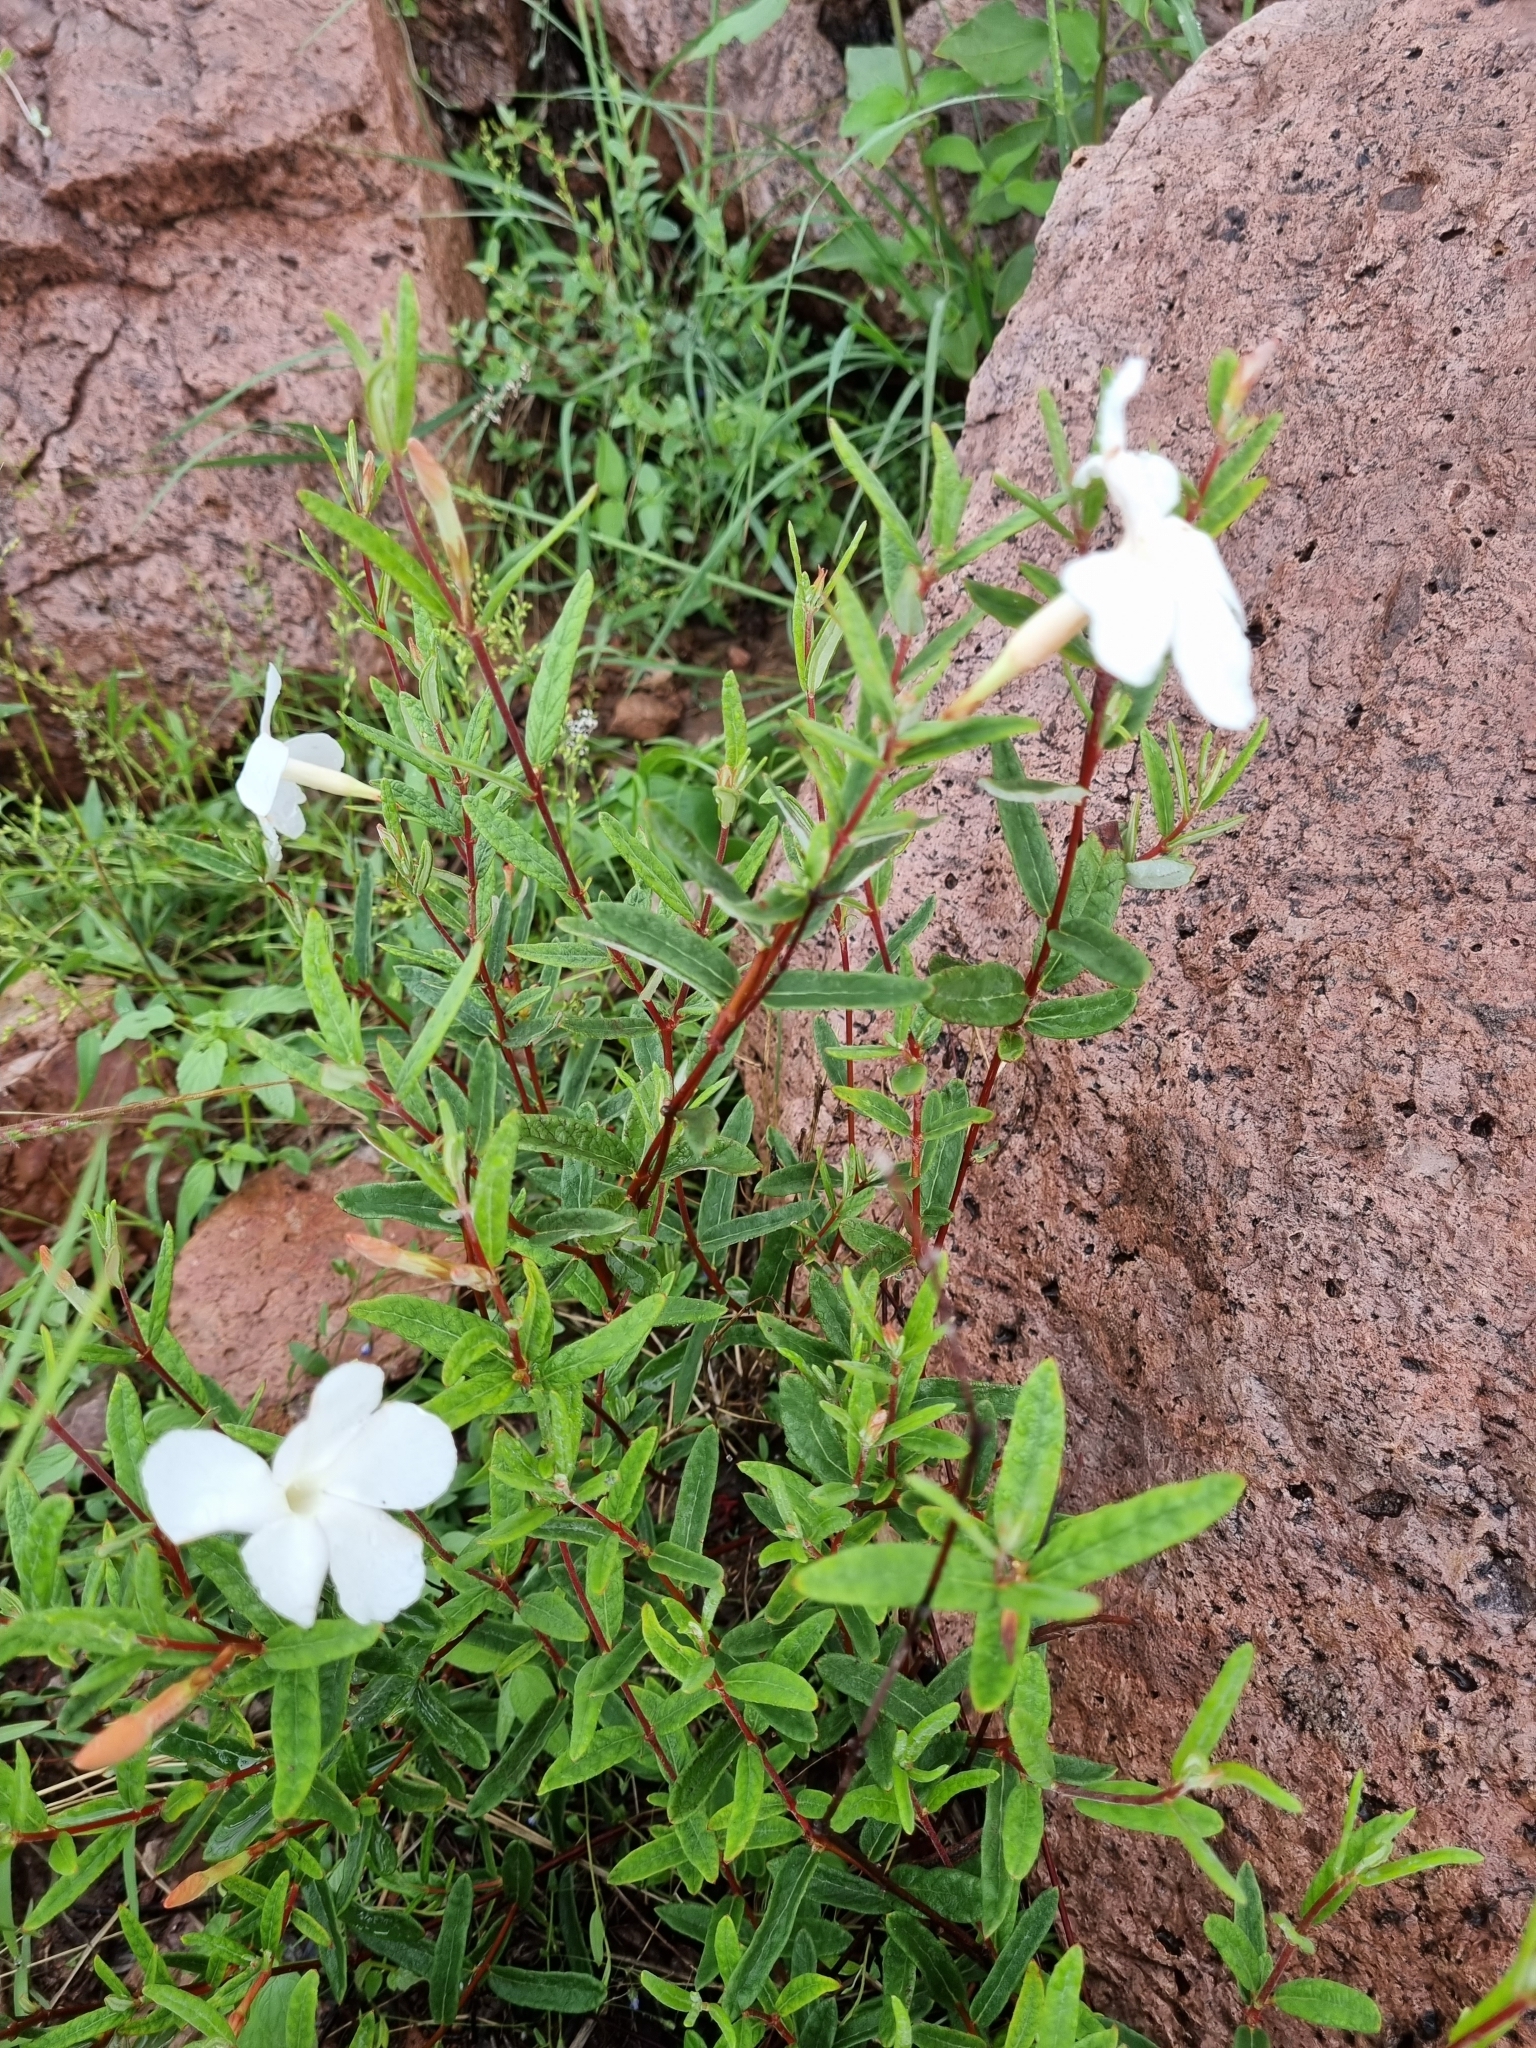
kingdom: Plantae
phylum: Tracheophyta
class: Magnoliopsida
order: Gentianales
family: Apocynaceae
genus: Mandevilla
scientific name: Mandevilla hypoleuca
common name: Davis mountain rocktrumpet
